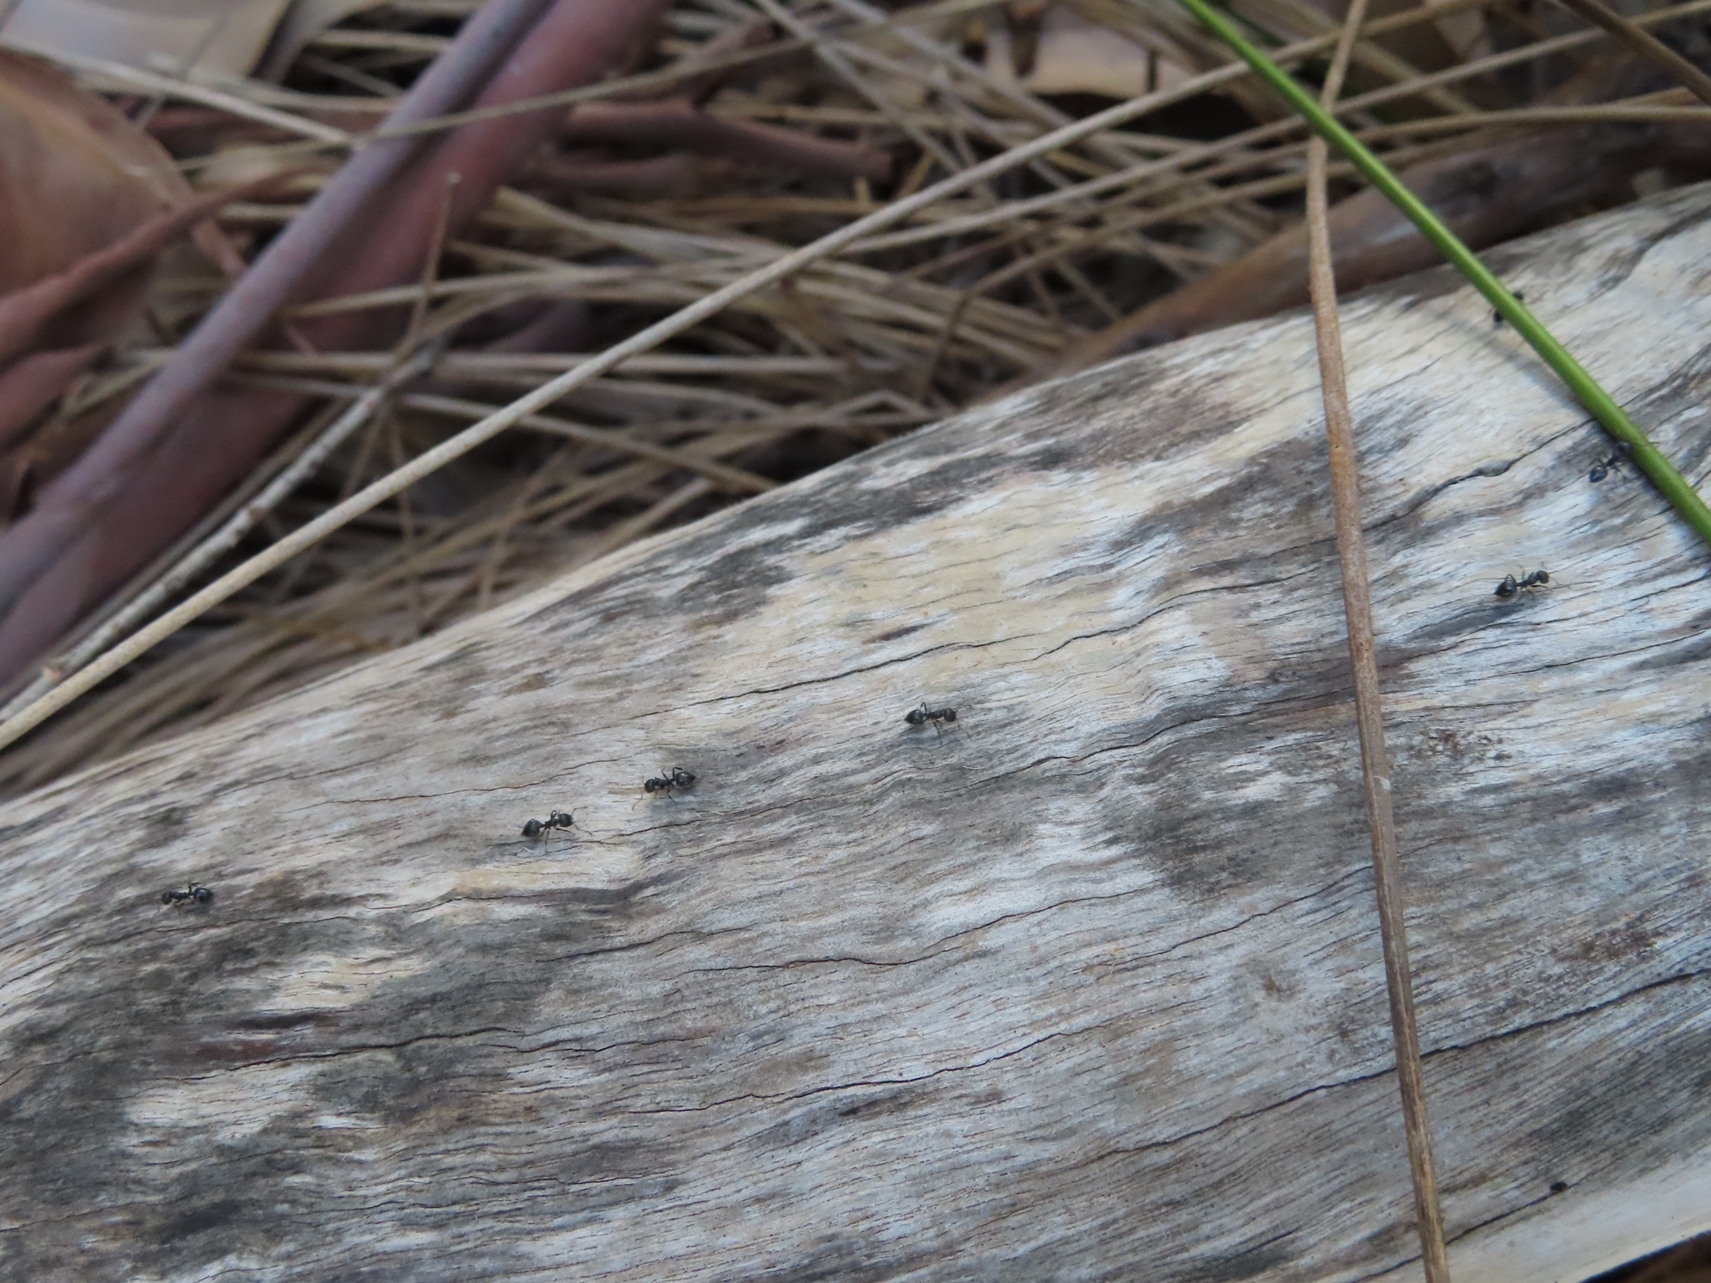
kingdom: Animalia
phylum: Arthropoda
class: Insecta
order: Hymenoptera
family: Formicidae
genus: Crematogaster
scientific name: Crematogaster peringueyi
